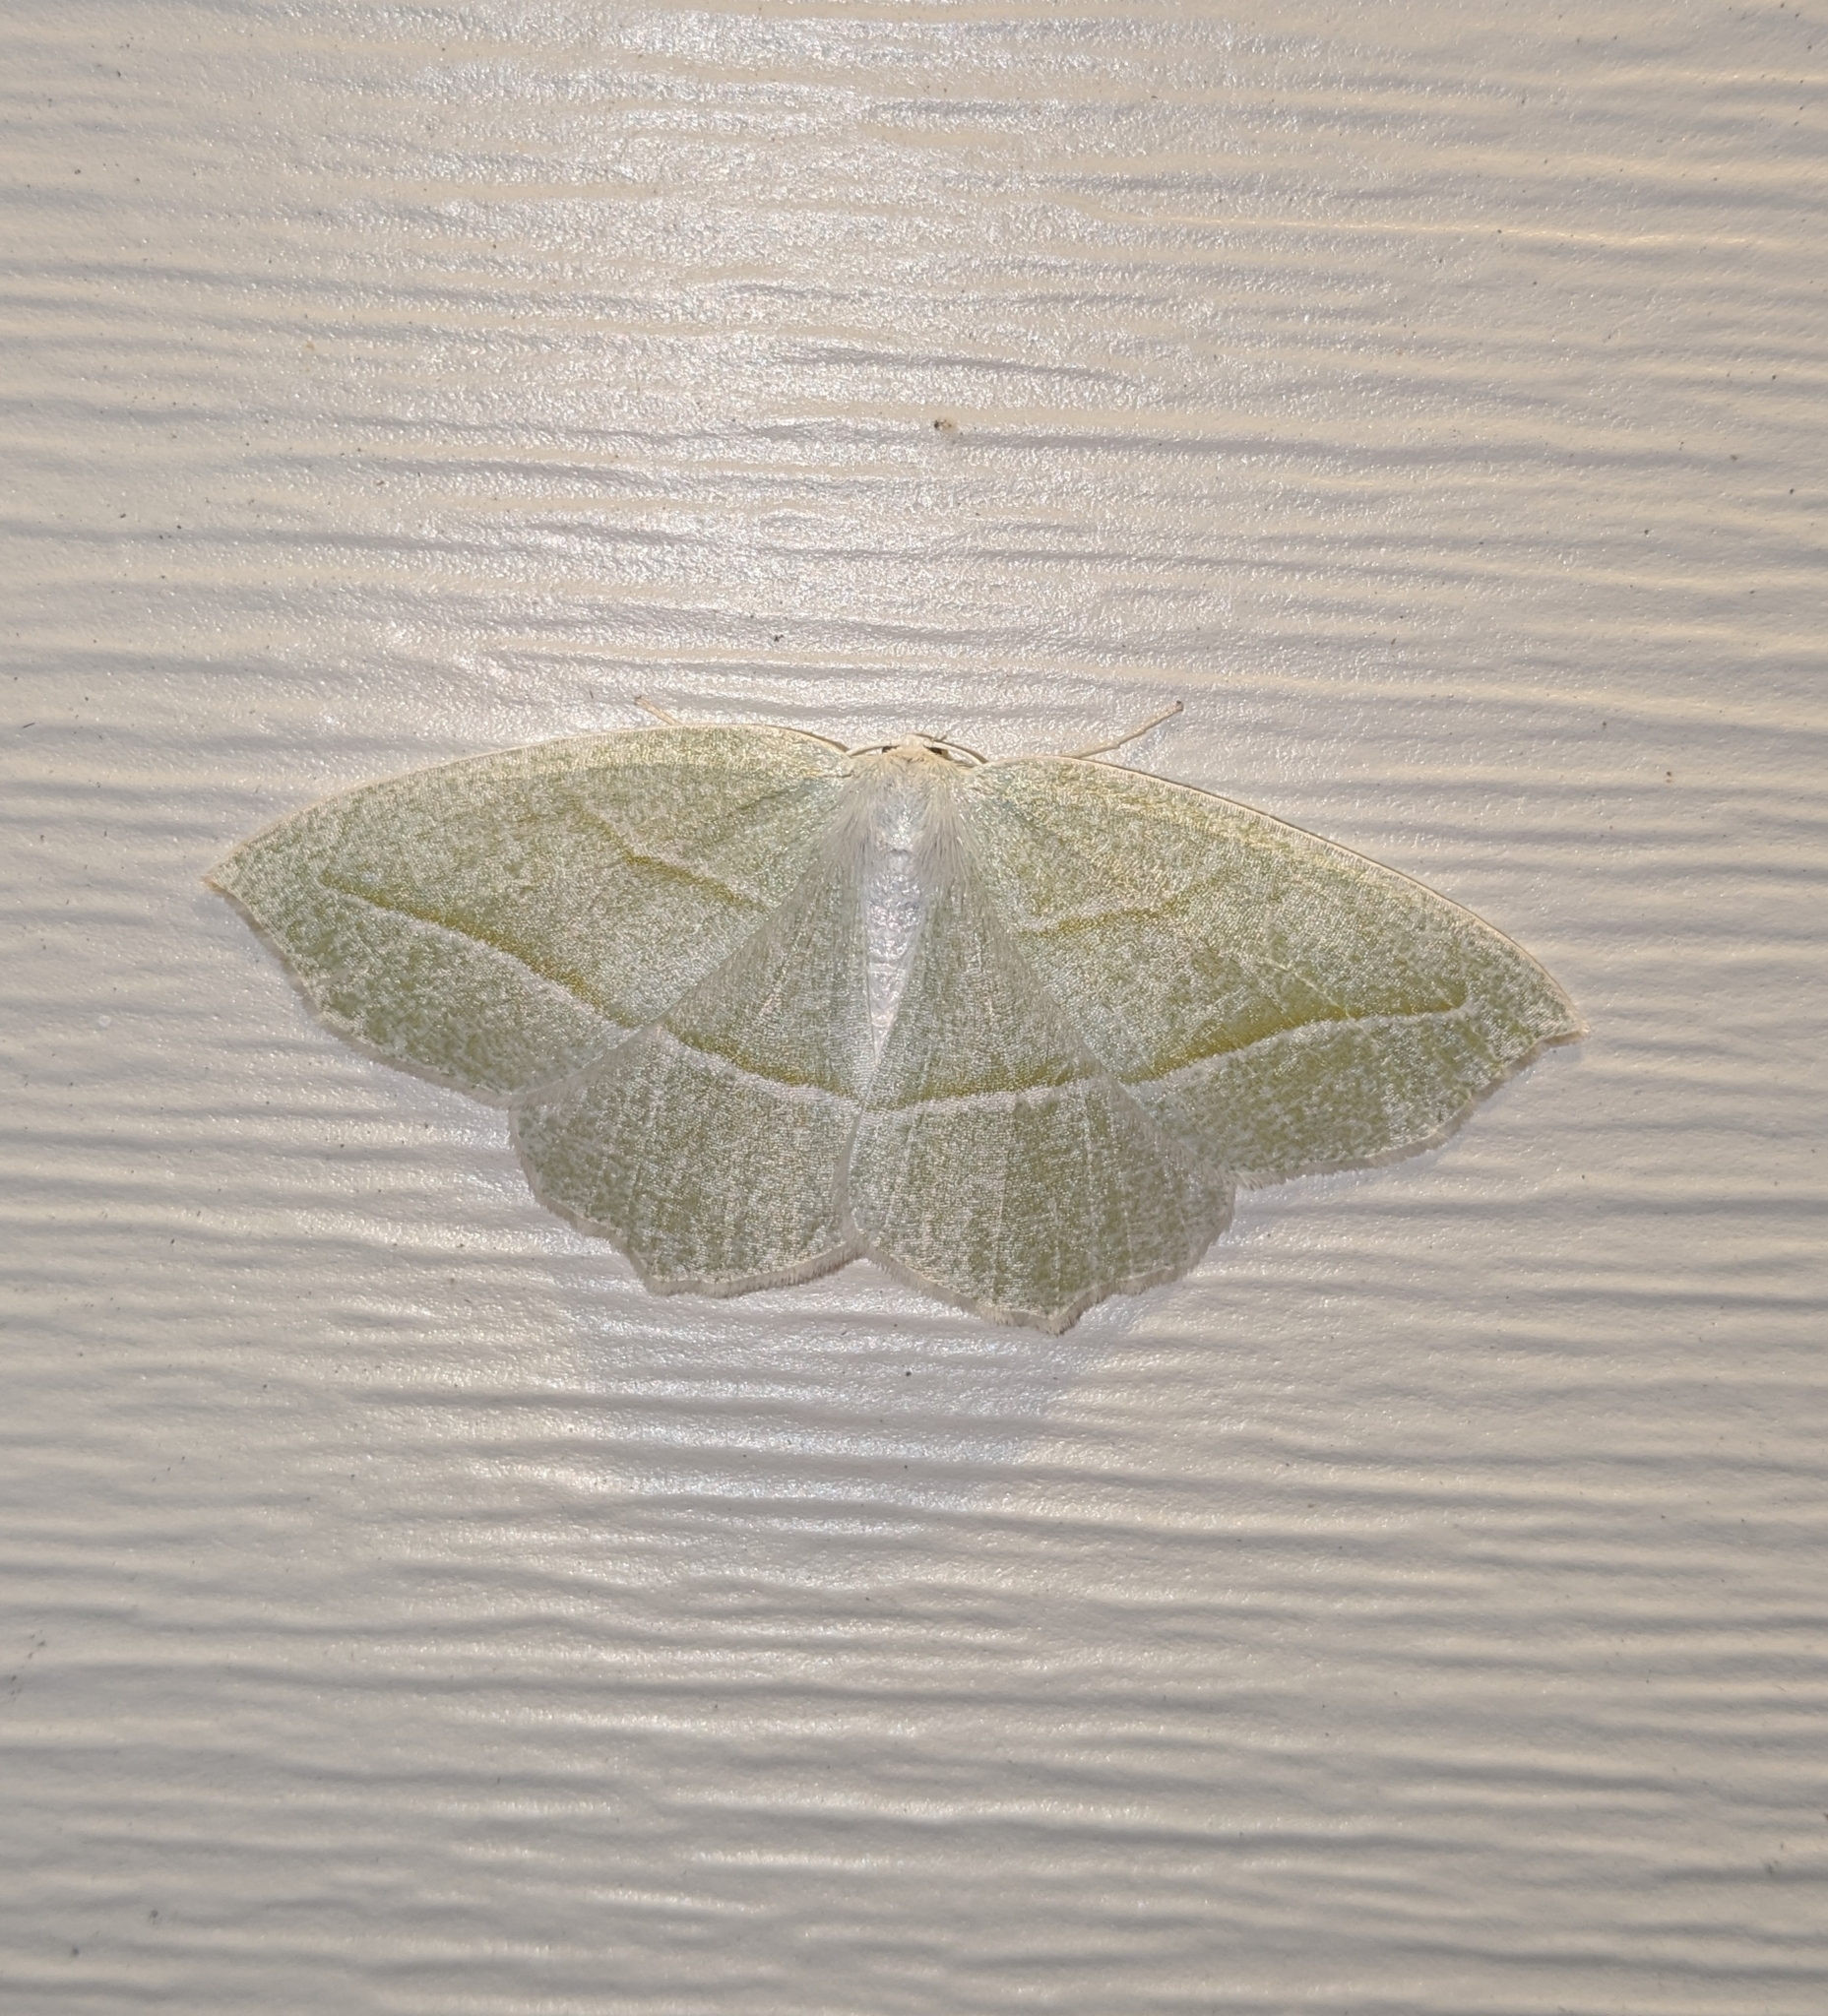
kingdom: Animalia
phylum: Arthropoda
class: Insecta
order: Lepidoptera
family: Geometridae
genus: Campaea
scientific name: Campaea perlata
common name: Fringed looper
